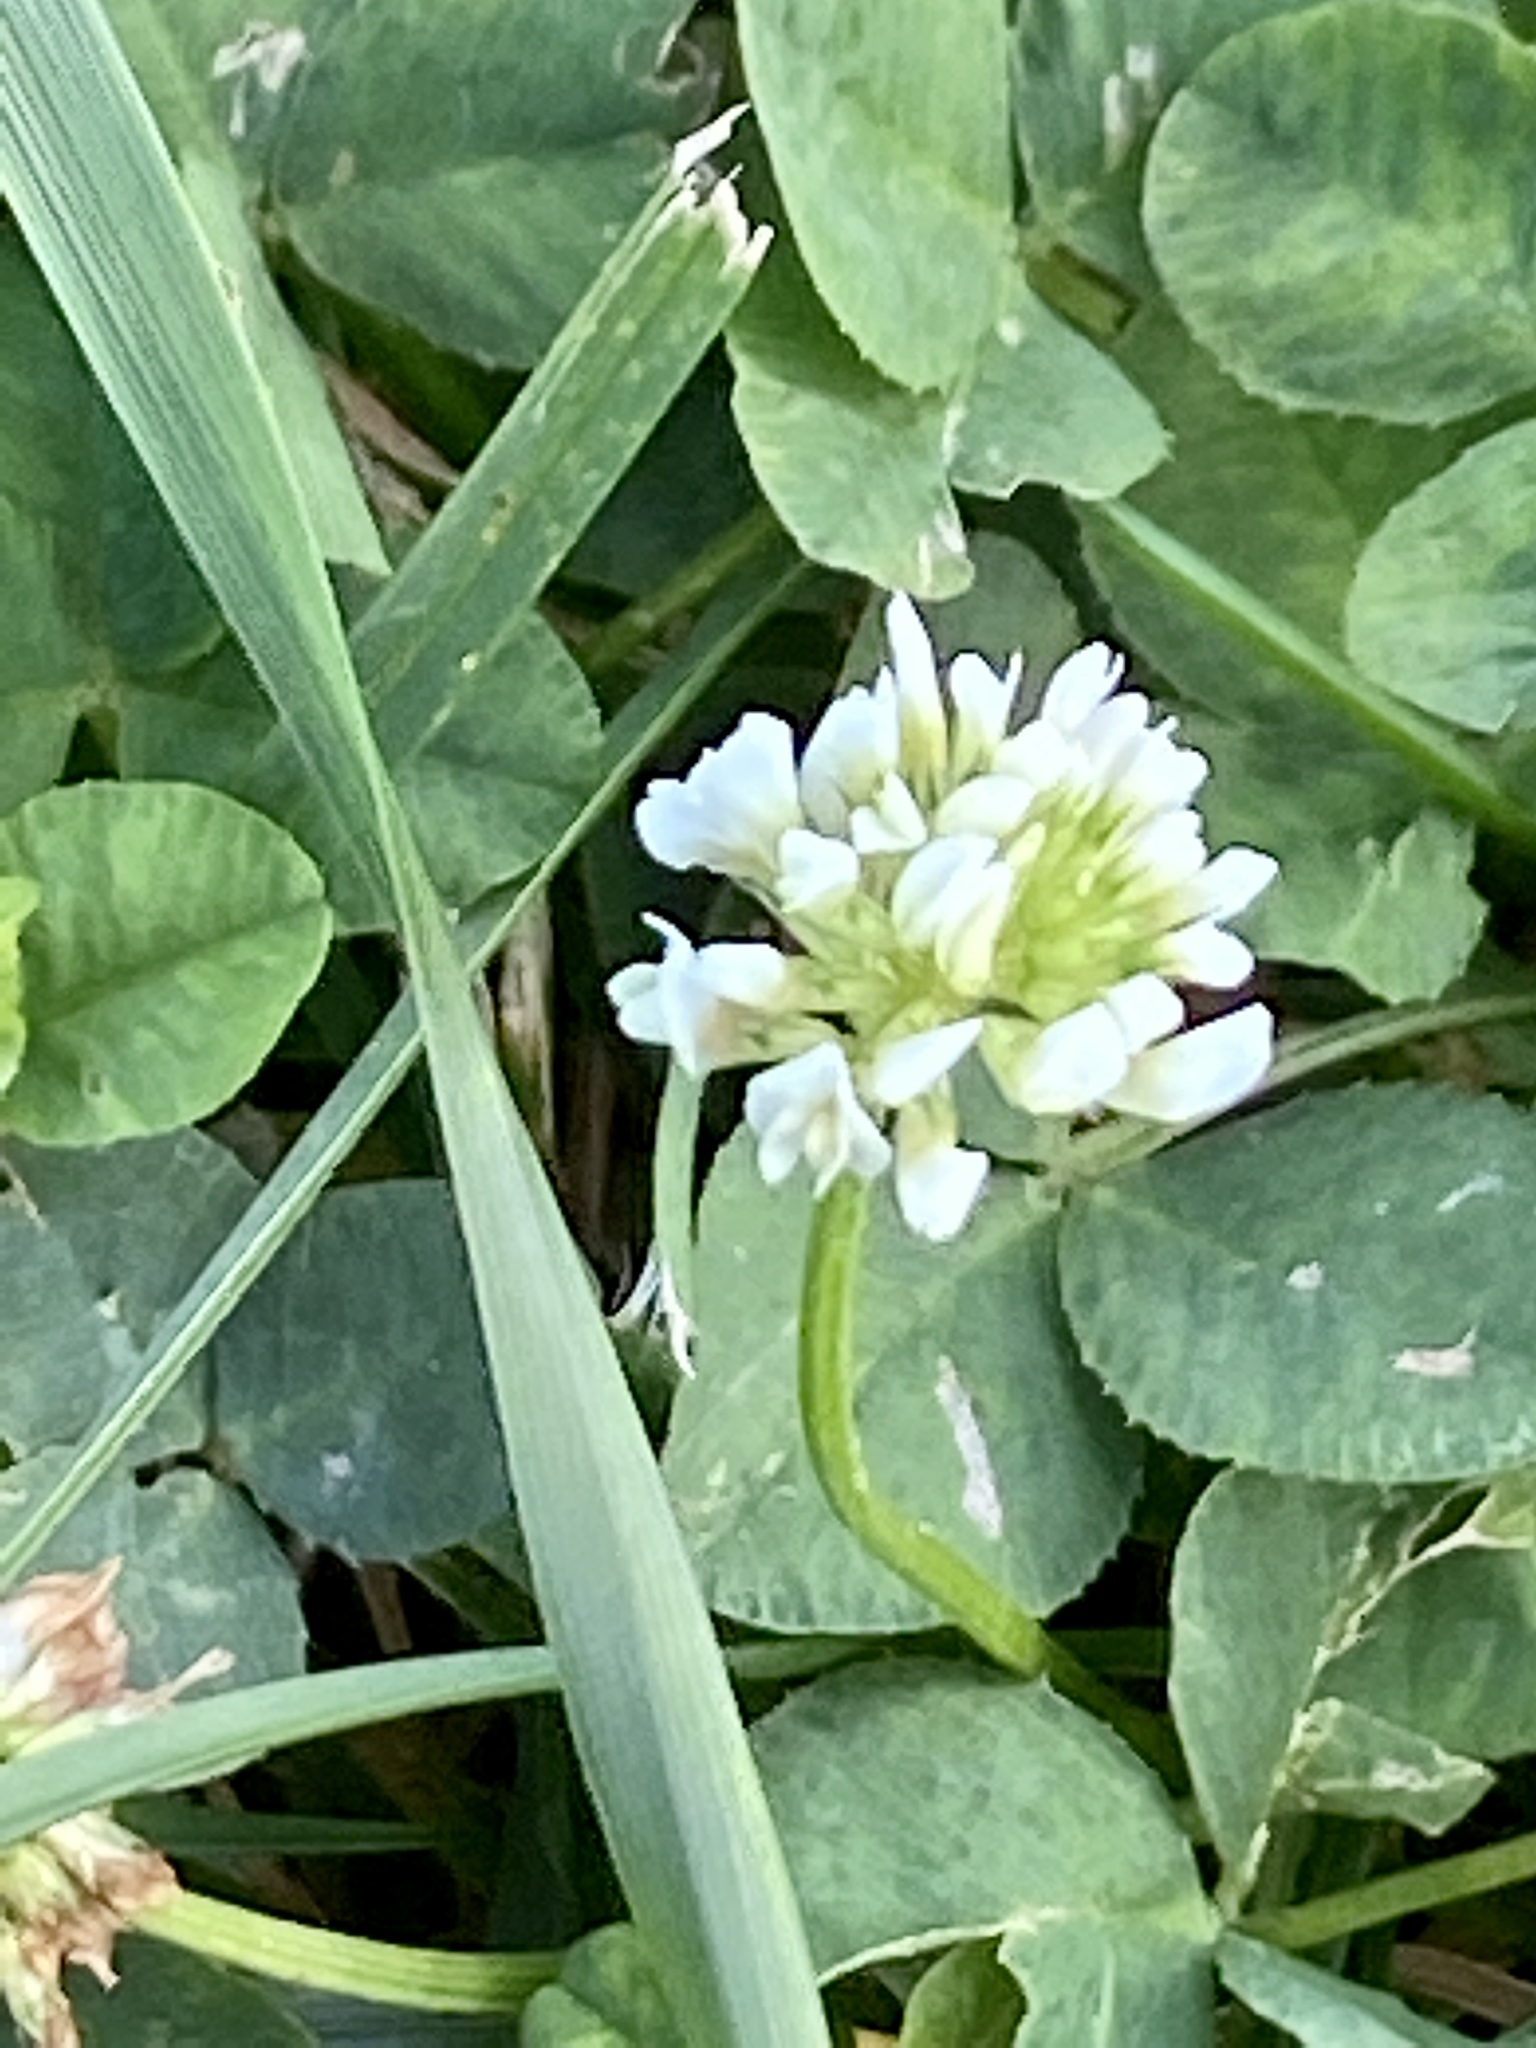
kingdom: Plantae
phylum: Tracheophyta
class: Magnoliopsida
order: Fabales
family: Fabaceae
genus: Trifolium
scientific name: Trifolium repens
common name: White clover
